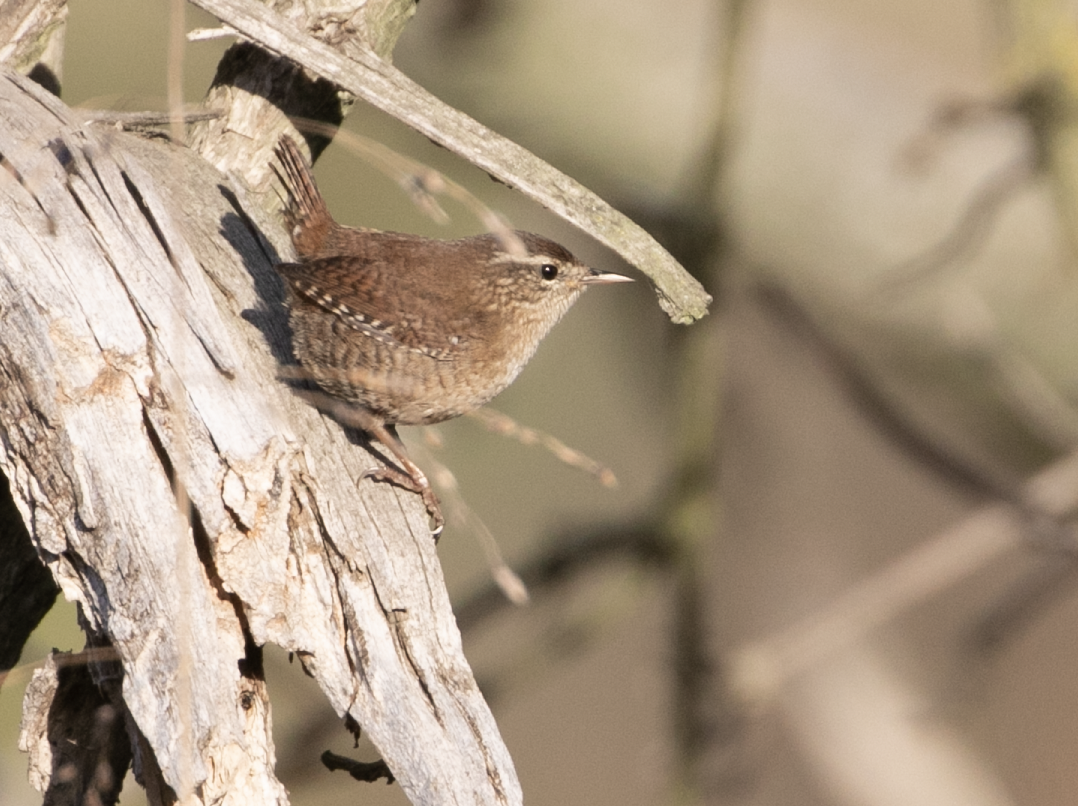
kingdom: Animalia
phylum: Chordata
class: Aves
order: Passeriformes
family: Troglodytidae
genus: Troglodytes
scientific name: Troglodytes troglodytes
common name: Eurasian wren
